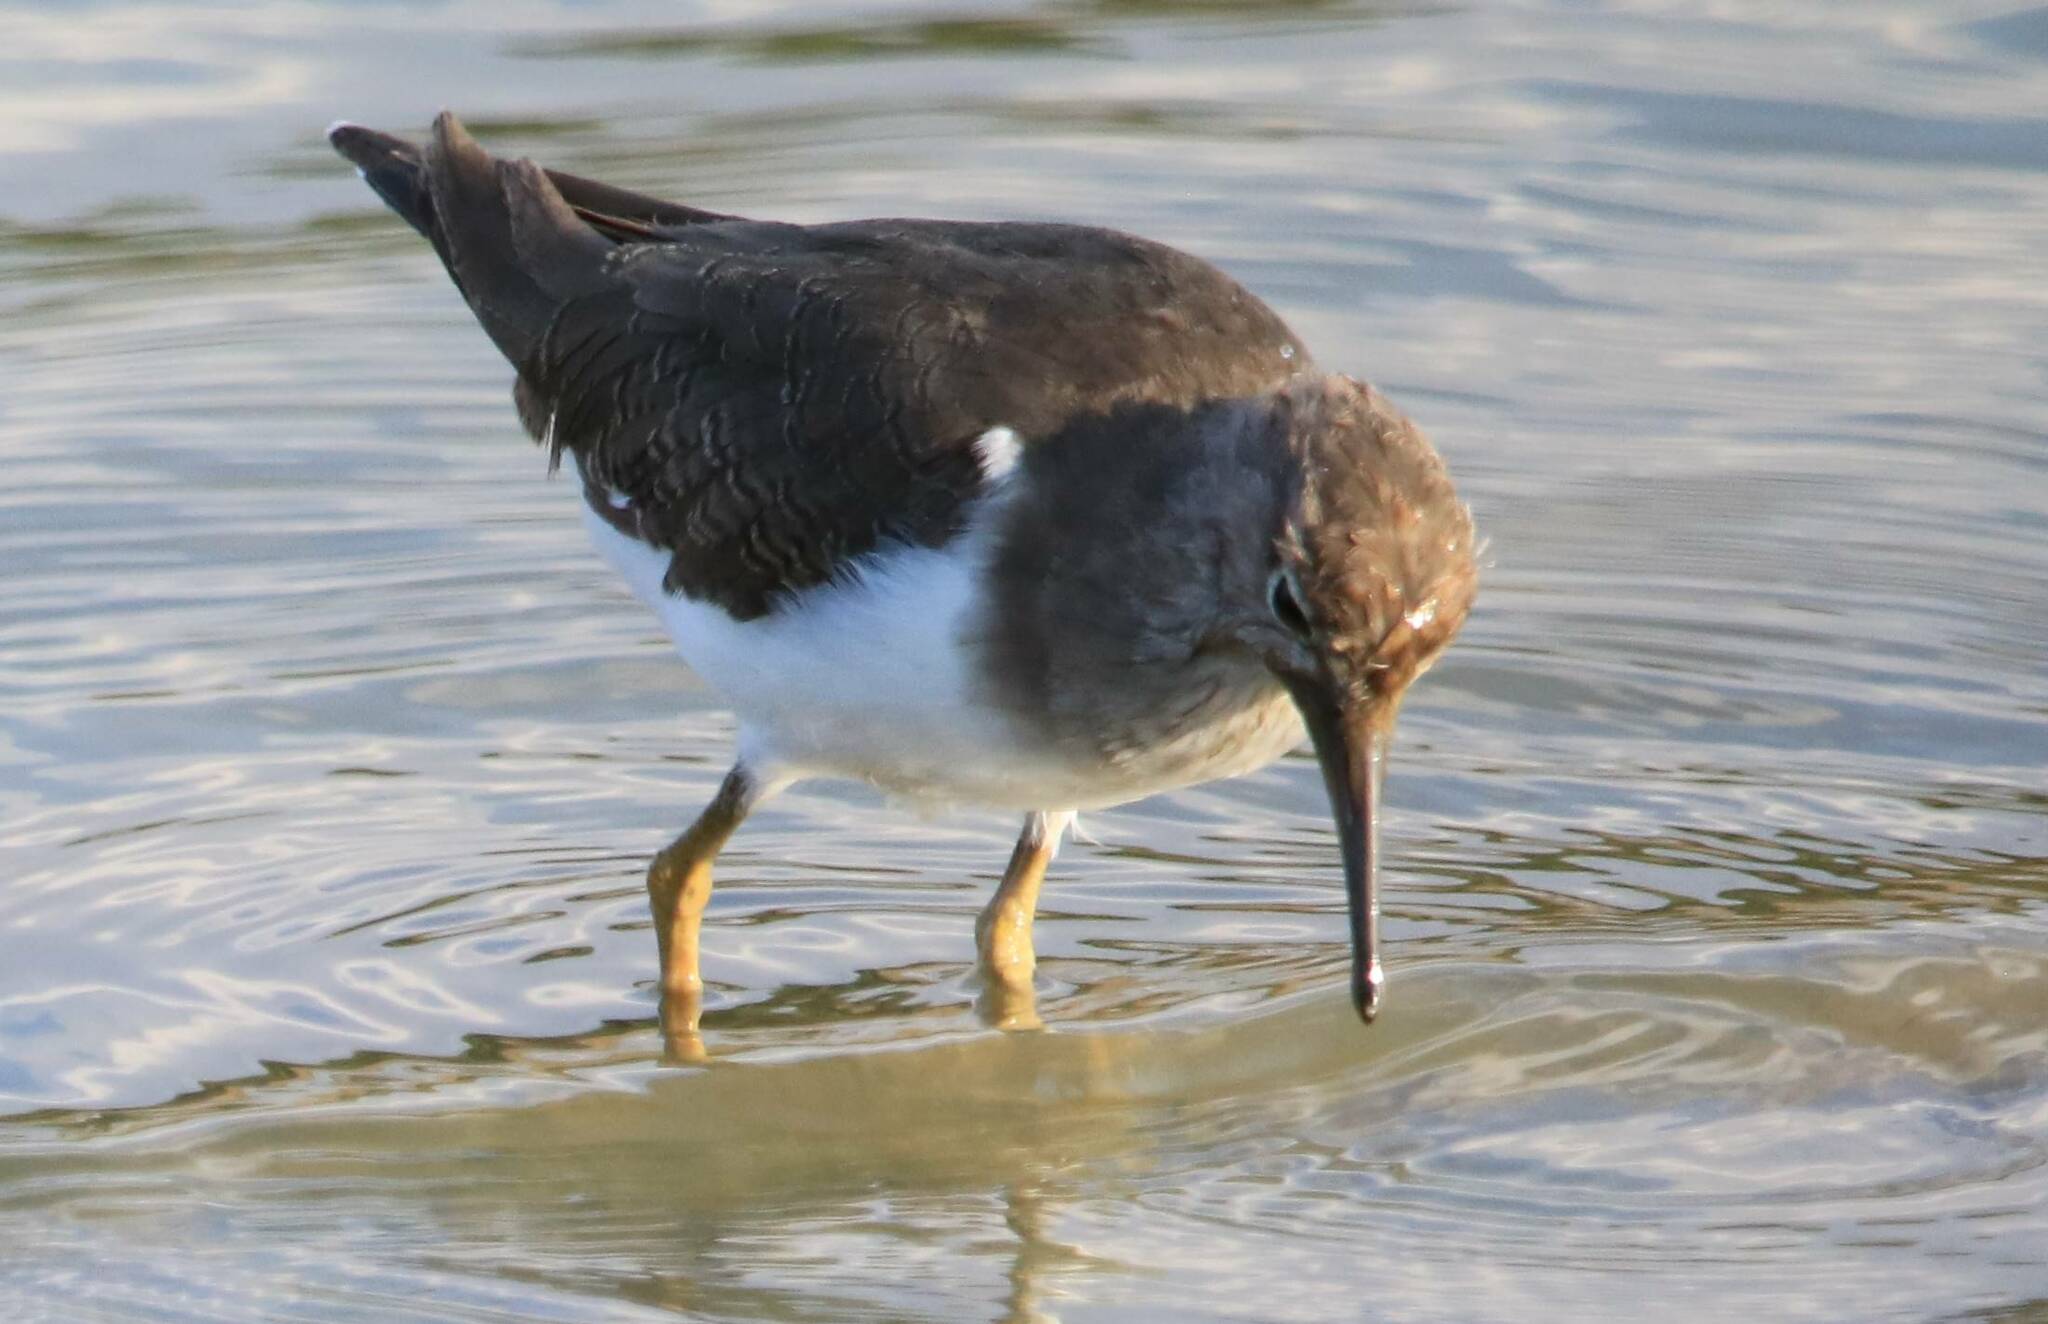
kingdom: Animalia
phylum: Chordata
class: Aves
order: Charadriiformes
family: Scolopacidae
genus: Actitis
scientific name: Actitis hypoleucos
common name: Common sandpiper
